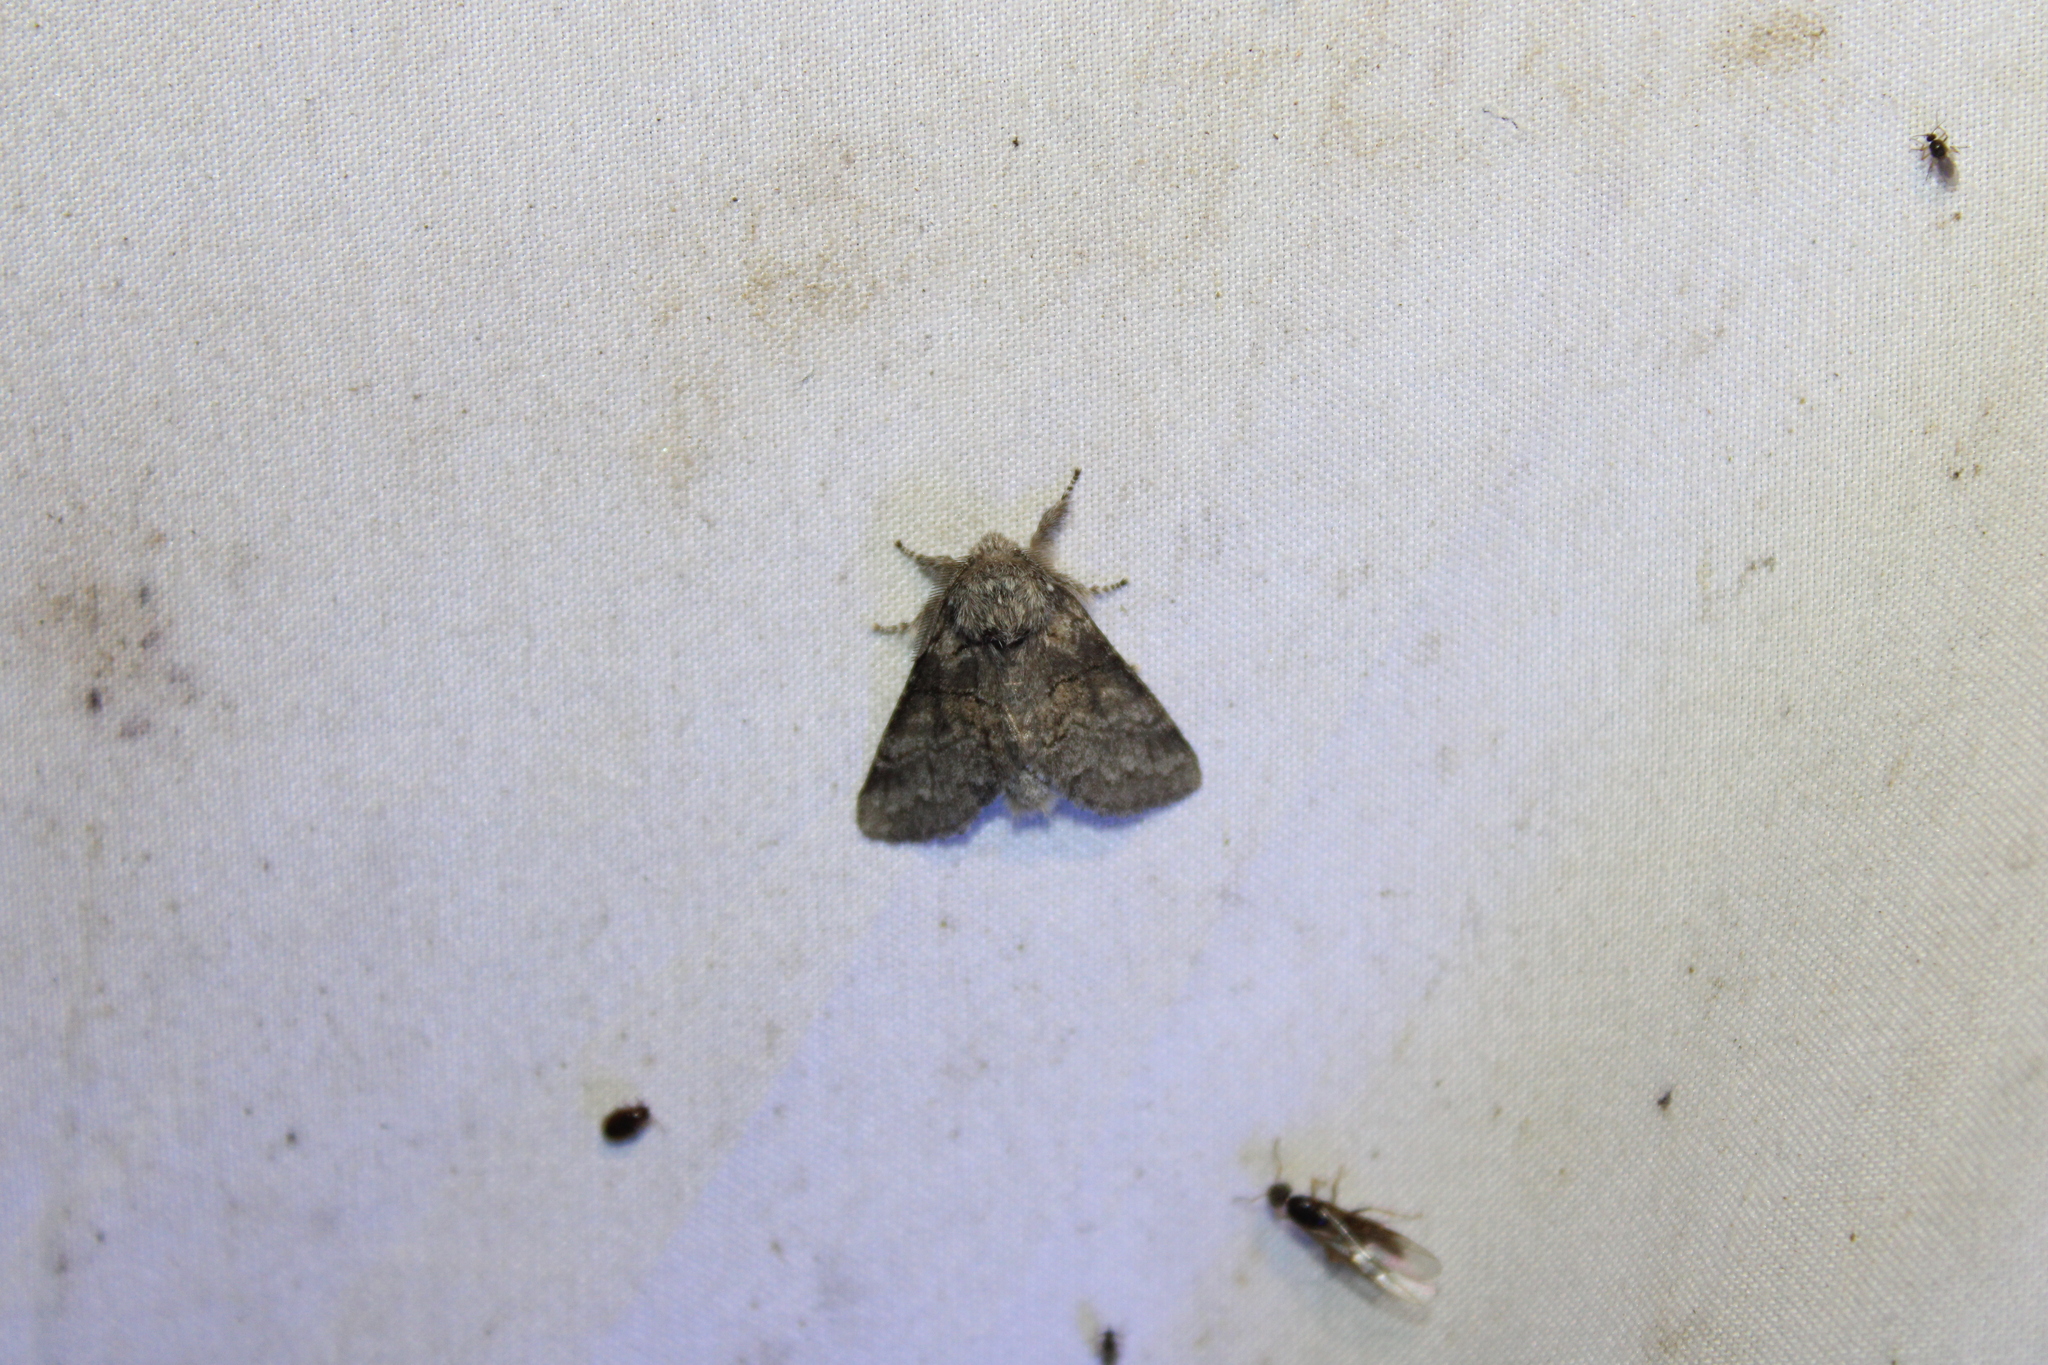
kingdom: Animalia
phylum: Arthropoda
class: Insecta
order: Lepidoptera
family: Notodontidae
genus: Gluphisia
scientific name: Gluphisia septentrionis
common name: Common gluphisia
